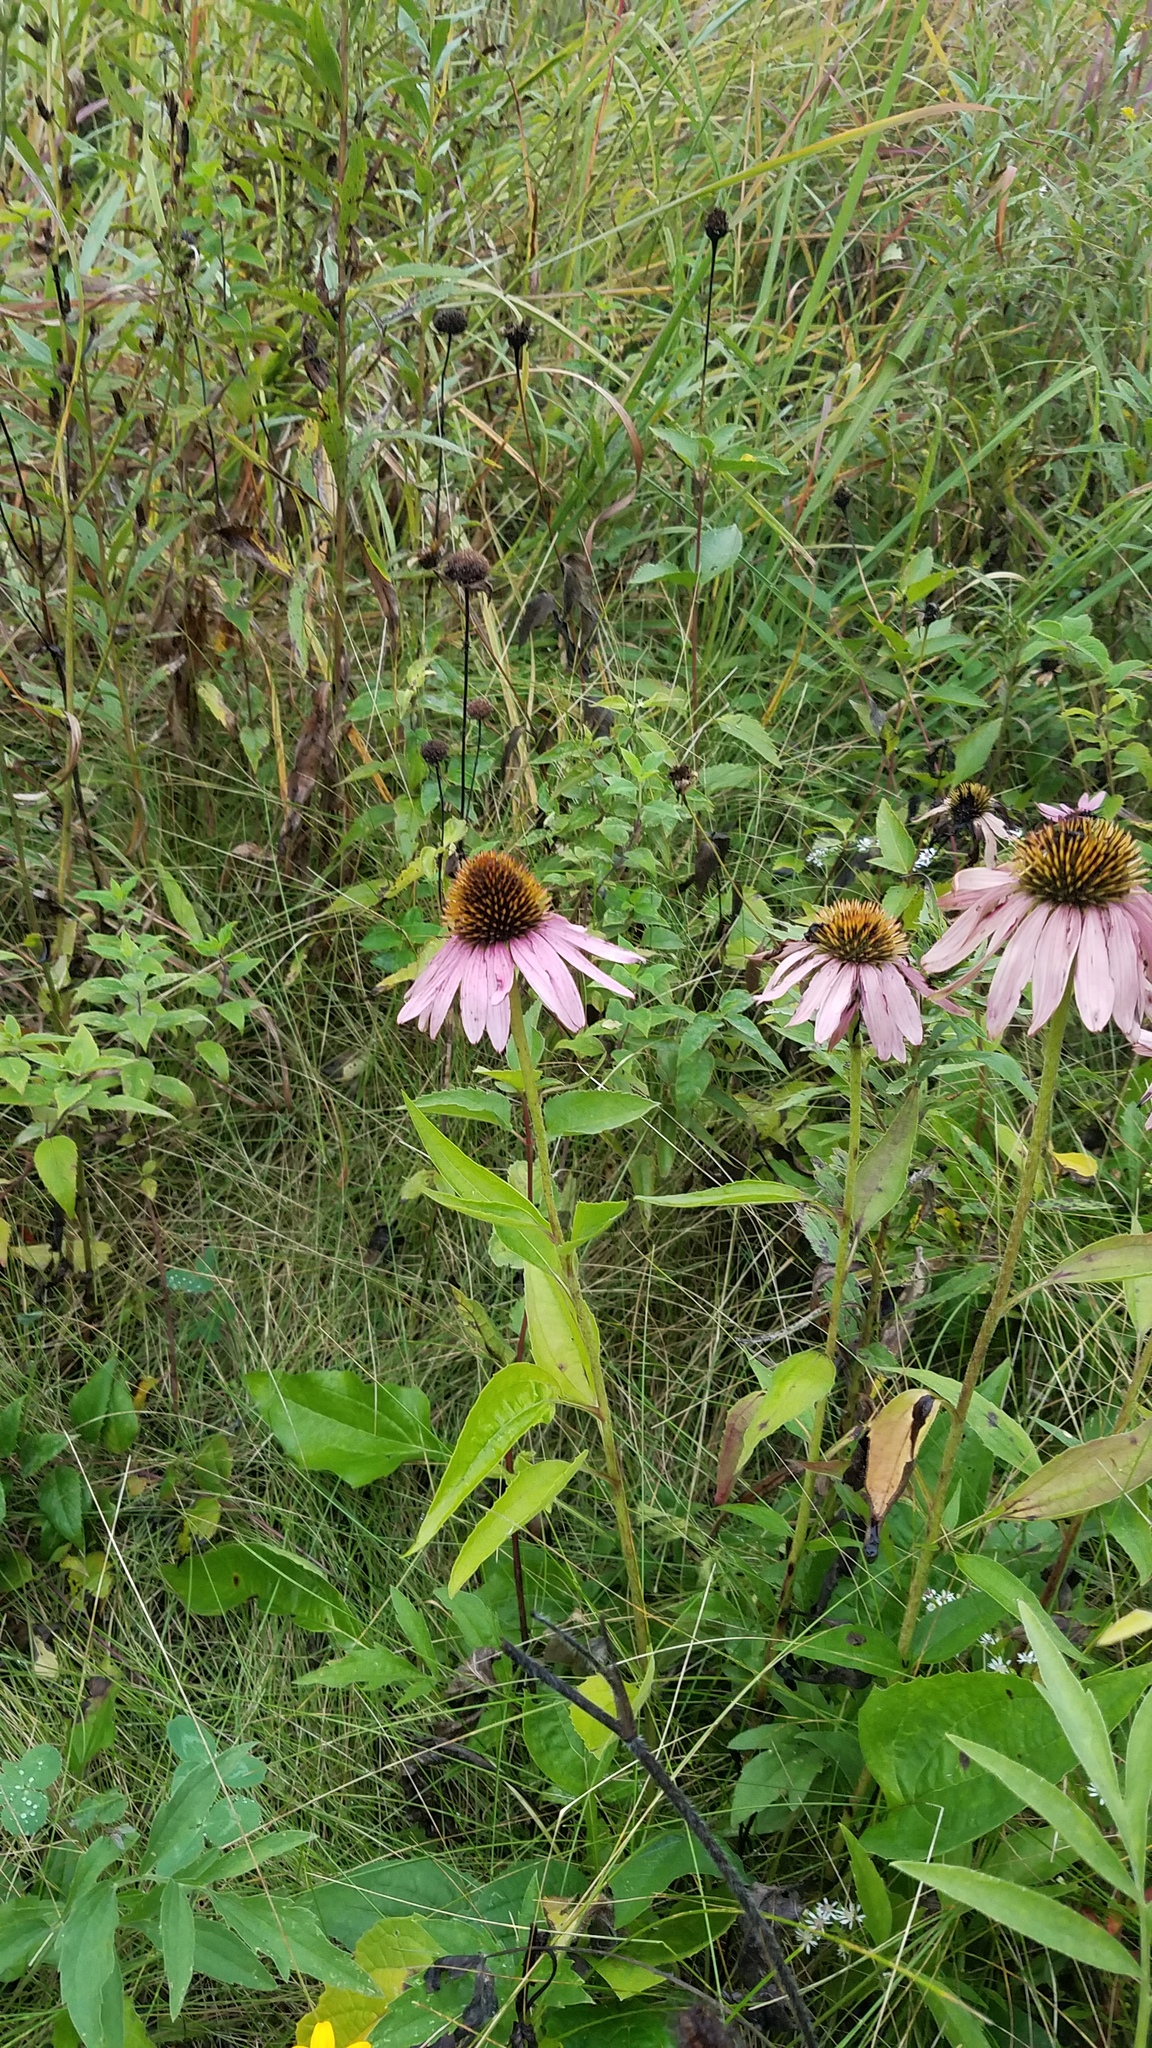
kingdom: Plantae
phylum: Tracheophyta
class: Magnoliopsida
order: Asterales
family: Asteraceae
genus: Echinacea
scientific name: Echinacea purpurea
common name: Broad-leaved purple coneflower
